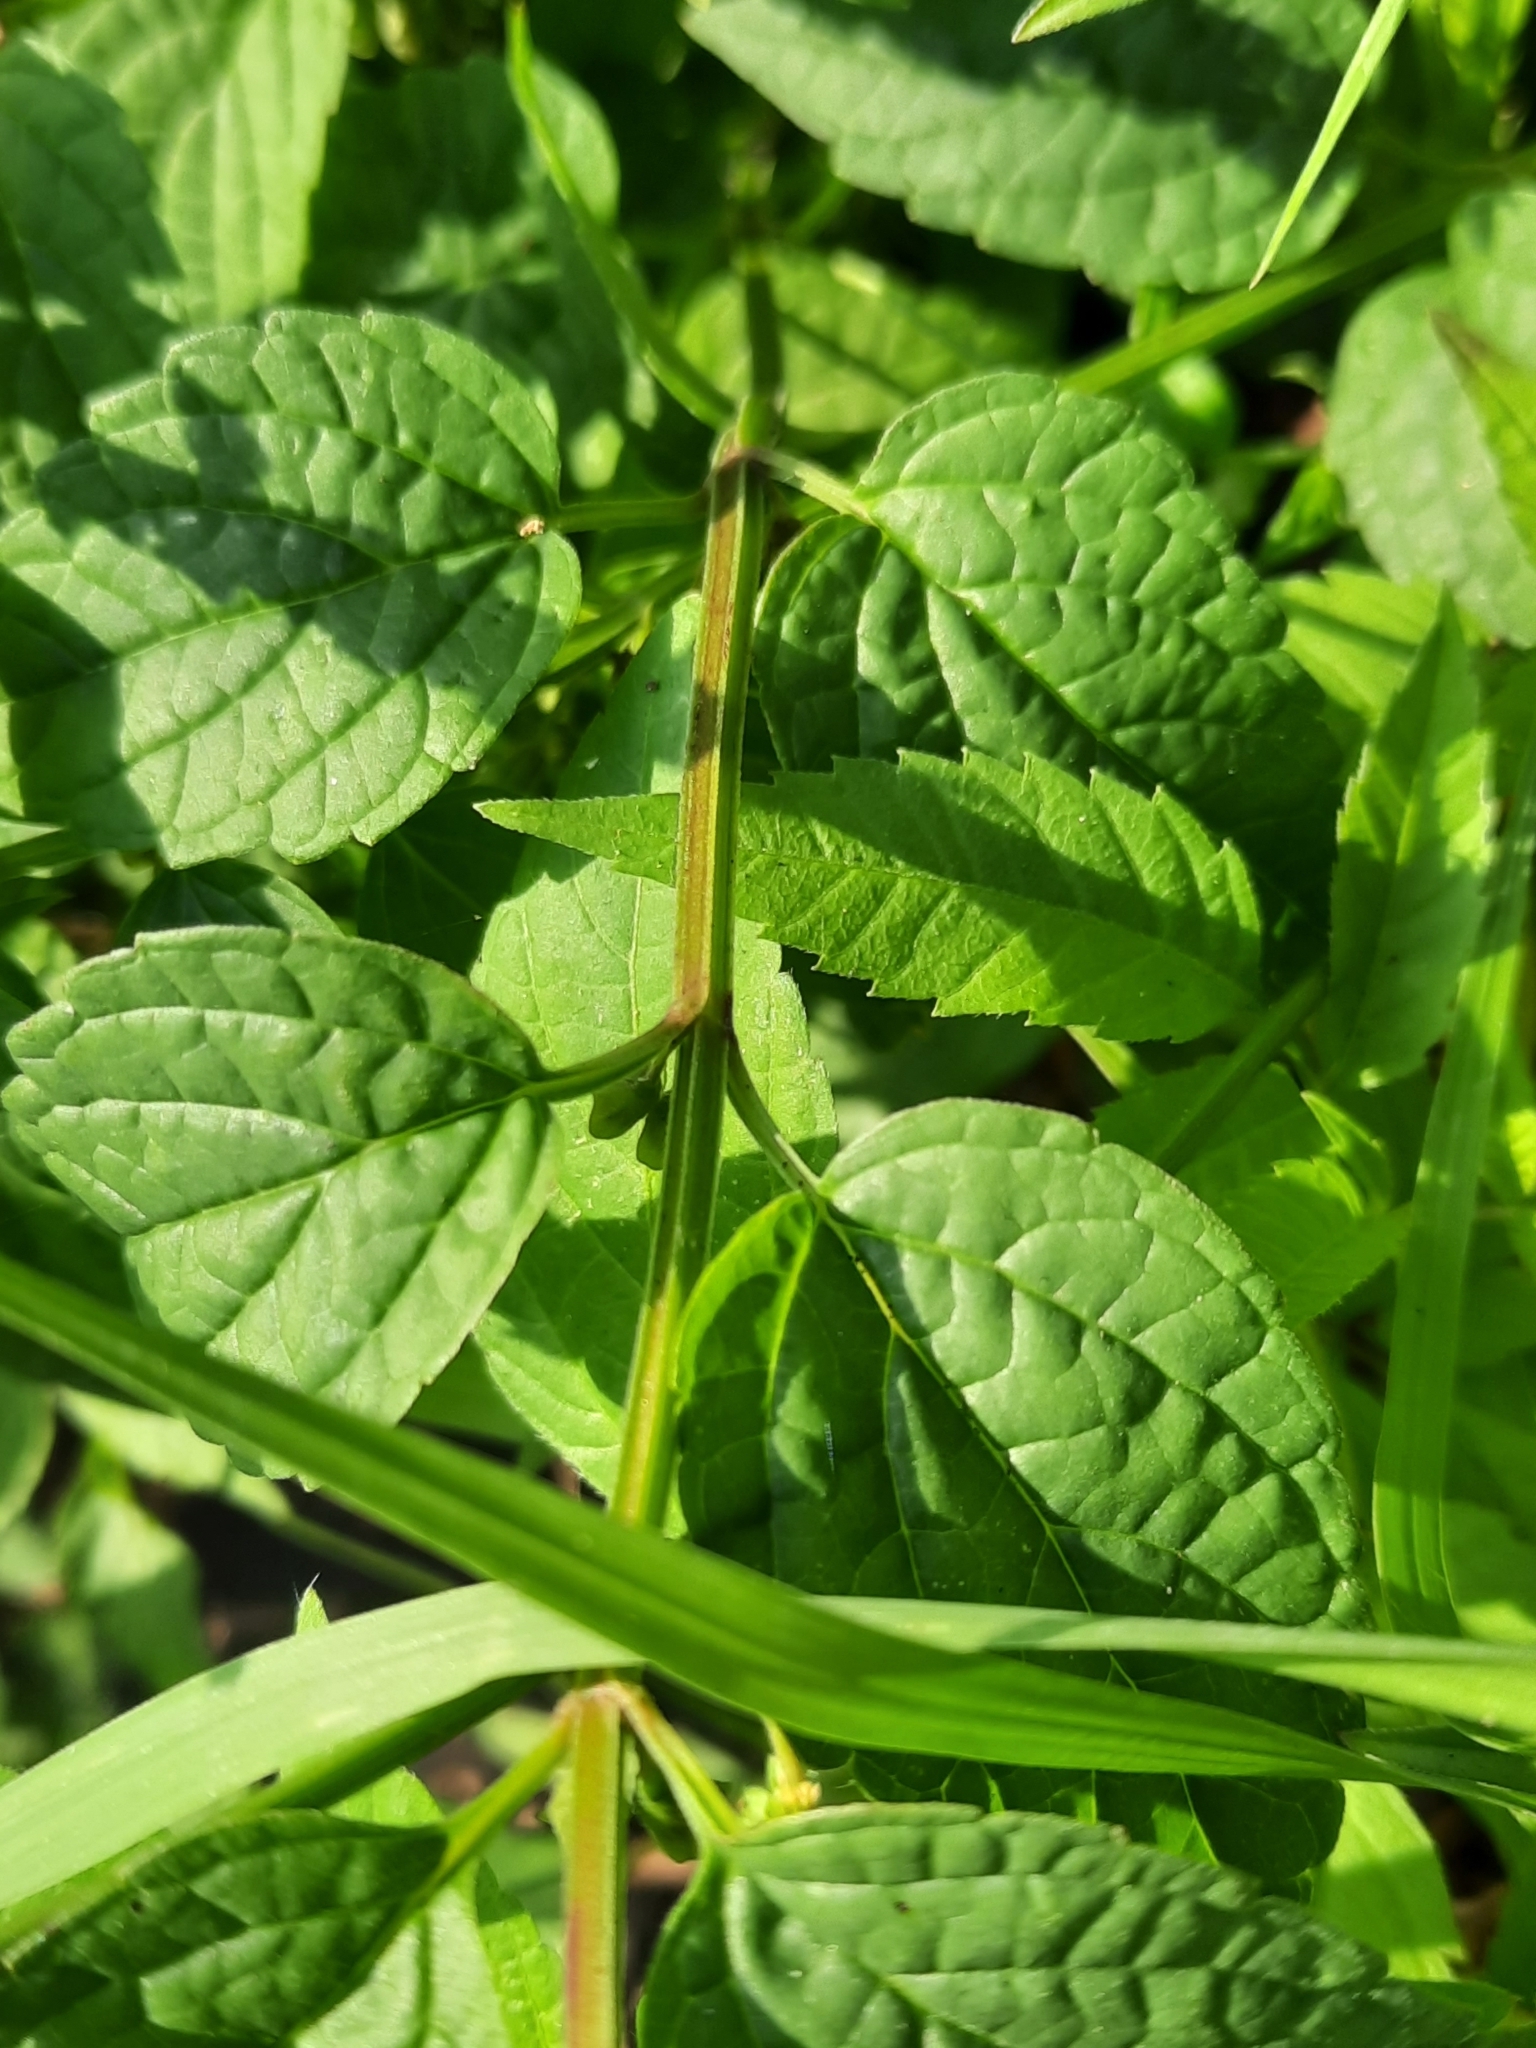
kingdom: Plantae
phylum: Tracheophyta
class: Magnoliopsida
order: Lamiales
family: Lamiaceae
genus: Scutellaria
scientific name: Scutellaria lateriflora
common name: Blue skullcap
